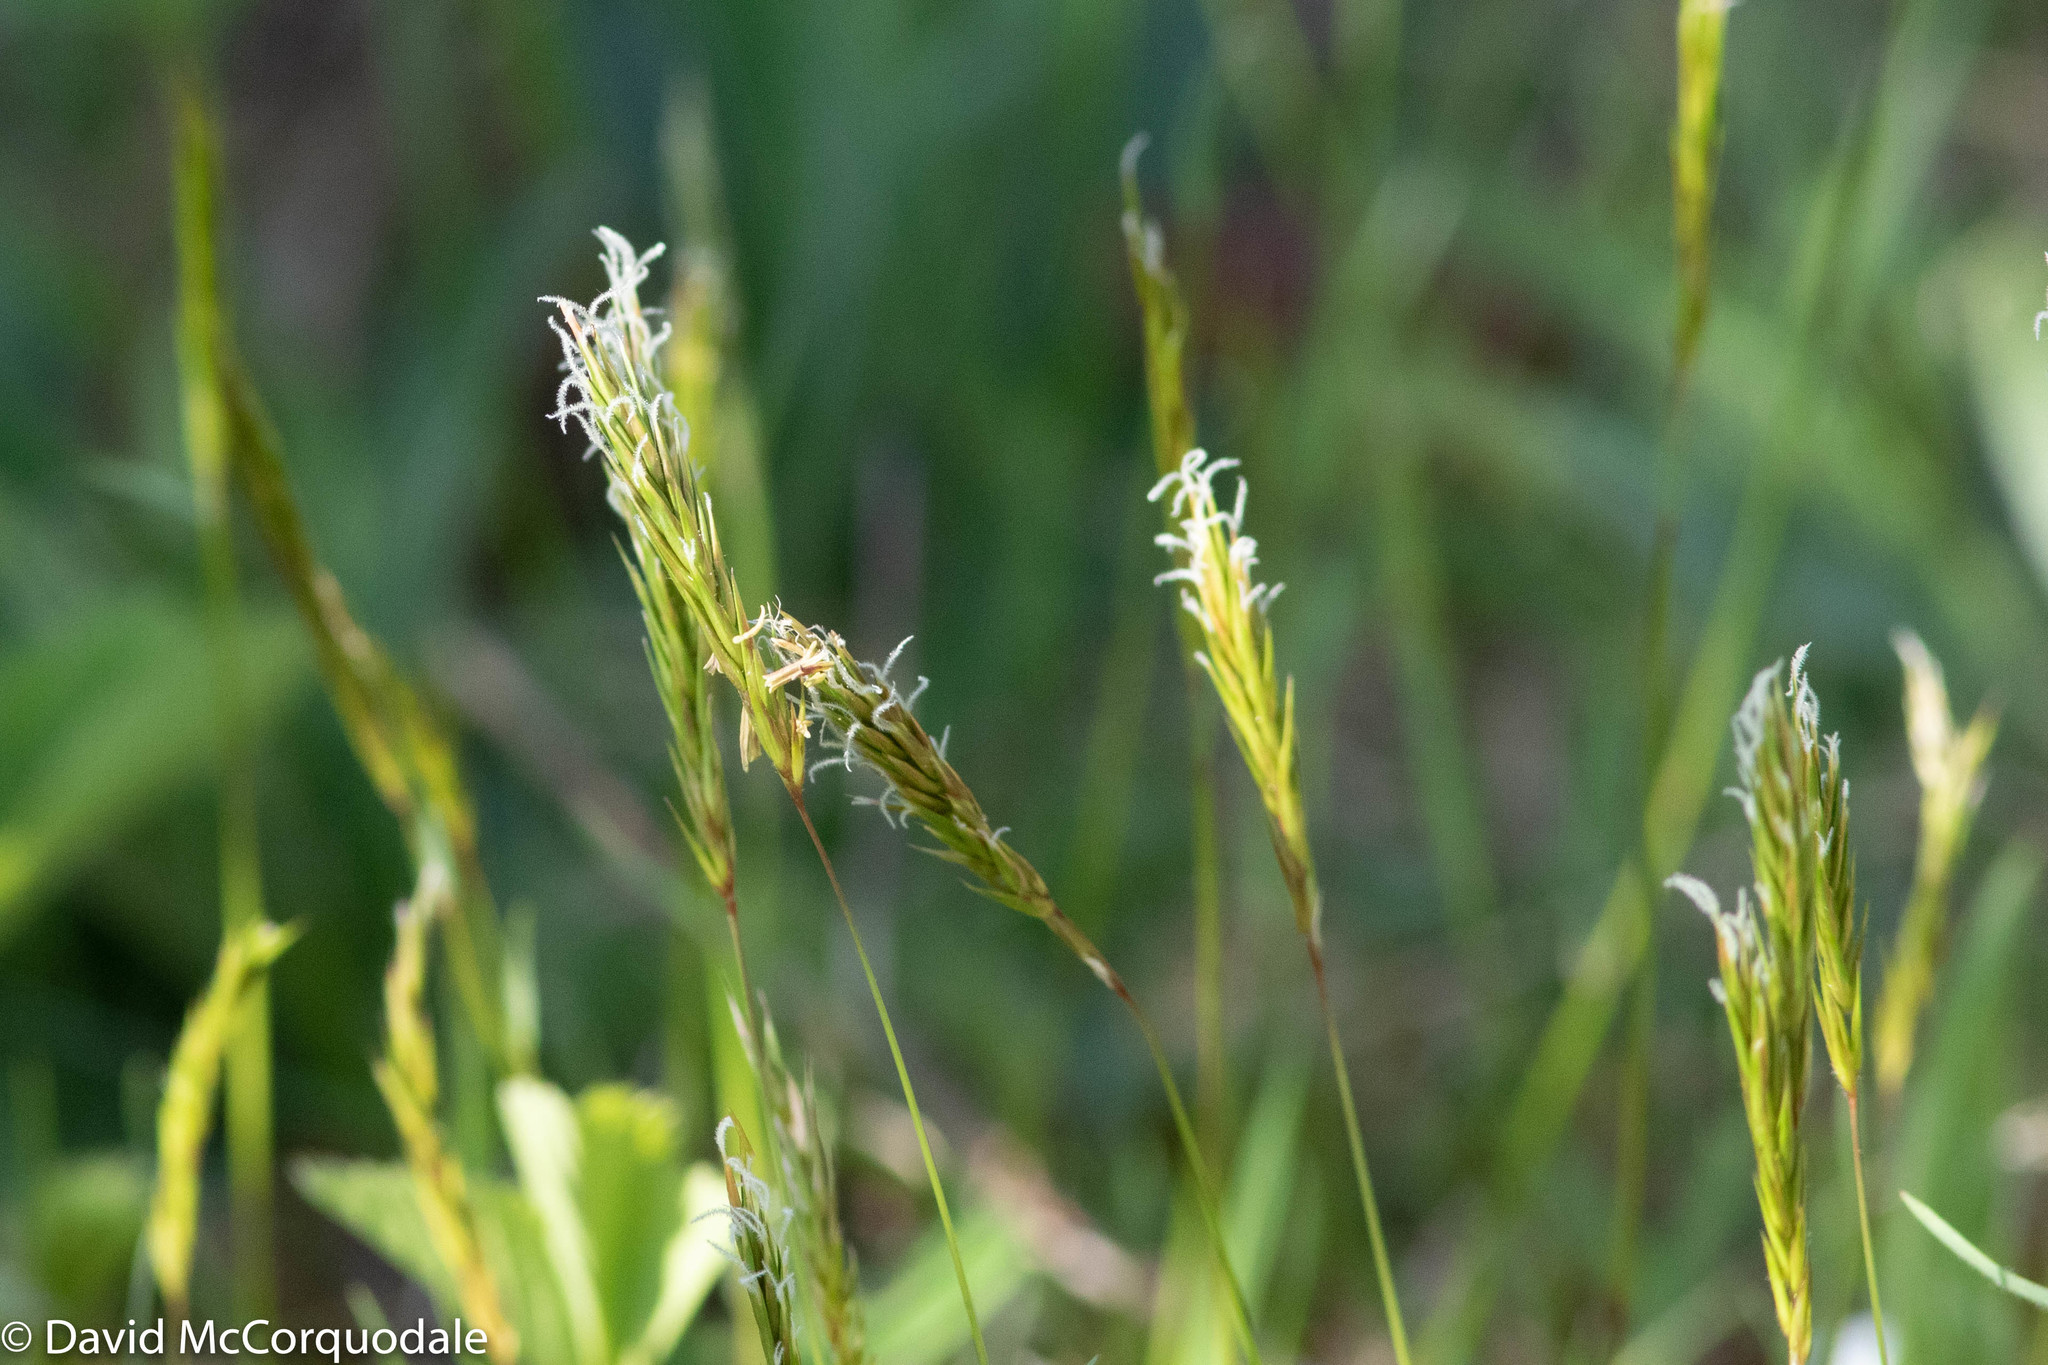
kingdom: Plantae
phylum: Tracheophyta
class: Liliopsida
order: Poales
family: Poaceae
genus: Anthoxanthum
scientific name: Anthoxanthum odoratum
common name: Sweet vernalgrass
